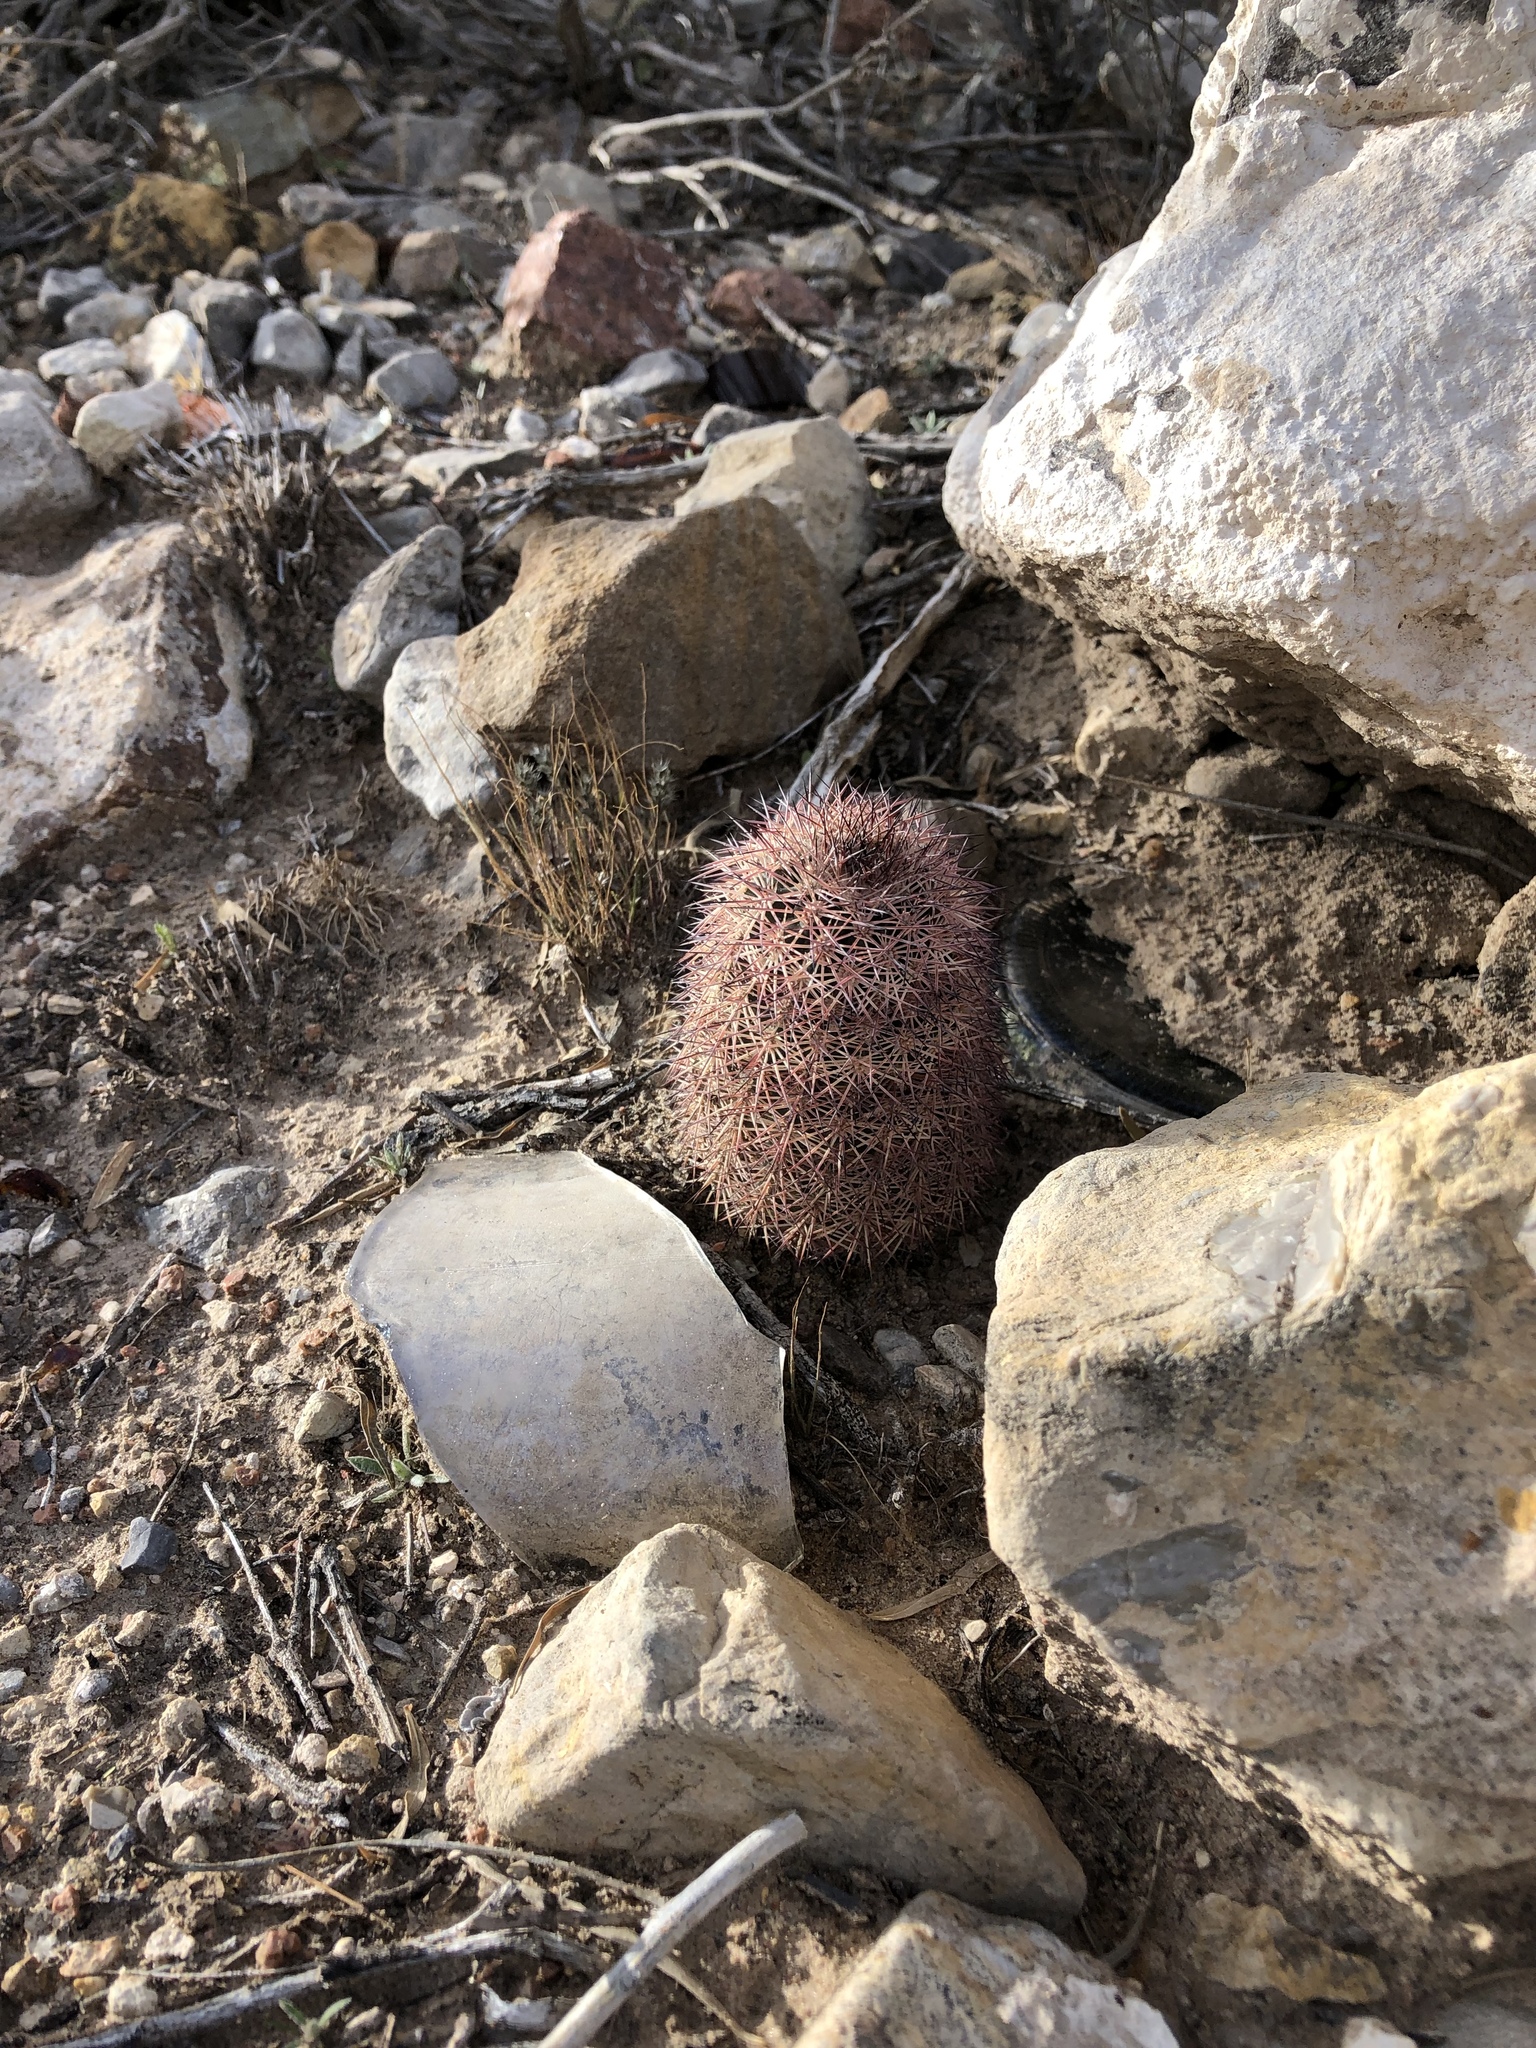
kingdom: Plantae
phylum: Tracheophyta
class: Magnoliopsida
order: Caryophyllales
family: Cactaceae
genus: Echinocereus
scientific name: Echinocereus dasyacanthus
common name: Spiny hedgehog cactus
